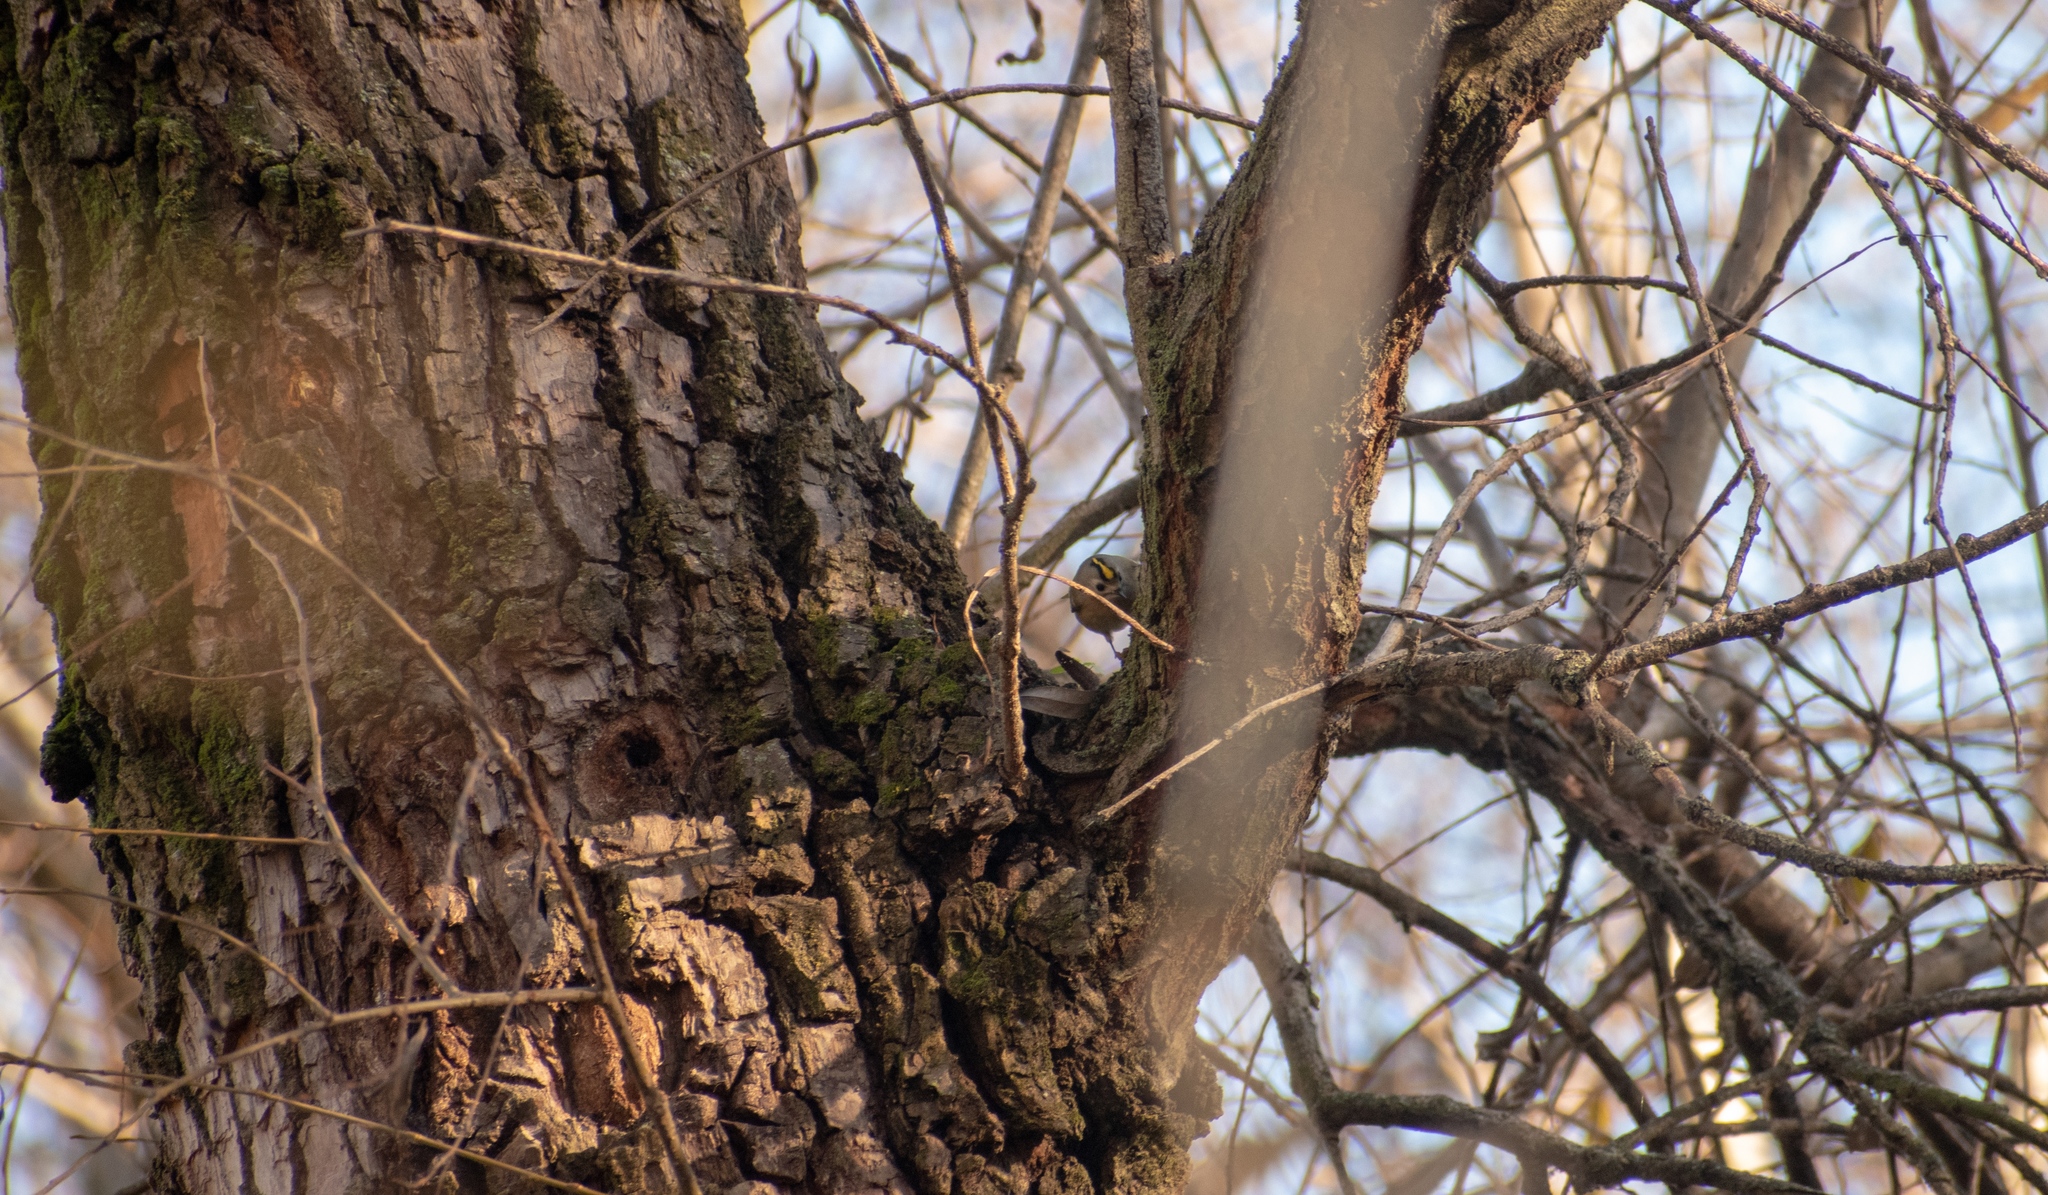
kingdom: Animalia
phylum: Chordata
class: Aves
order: Passeriformes
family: Regulidae
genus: Regulus
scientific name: Regulus regulus
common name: Goldcrest
